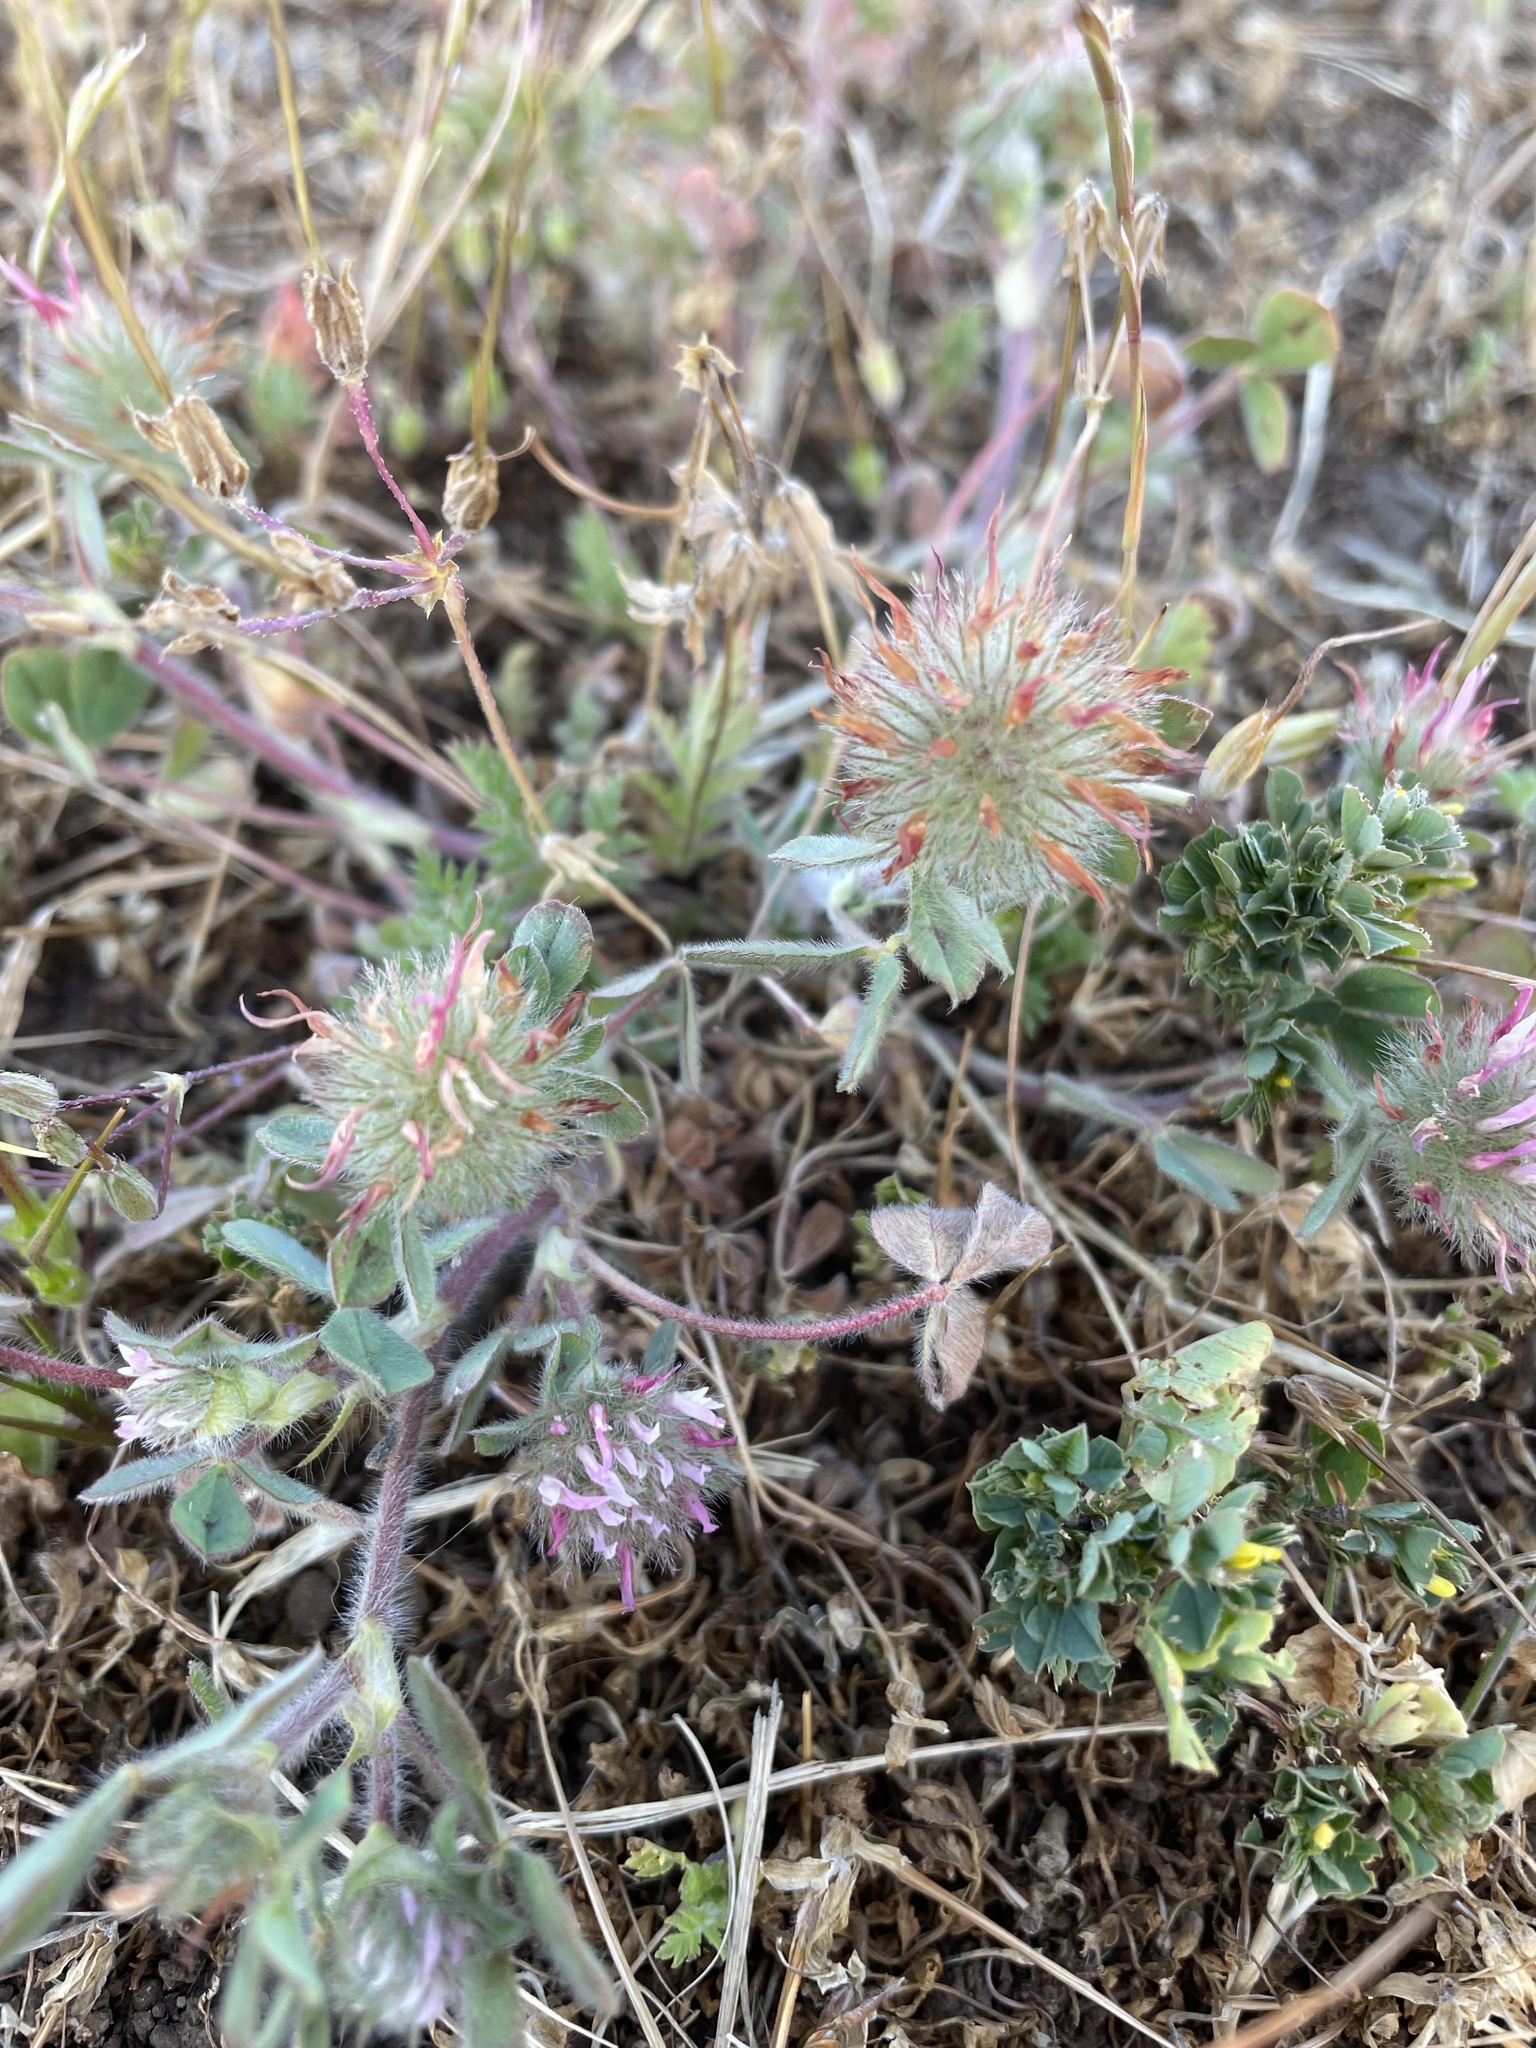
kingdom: Plantae
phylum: Tracheophyta
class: Magnoliopsida
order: Fabales
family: Fabaceae
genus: Trifolium
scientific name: Trifolium hirtum
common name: Rose clover
